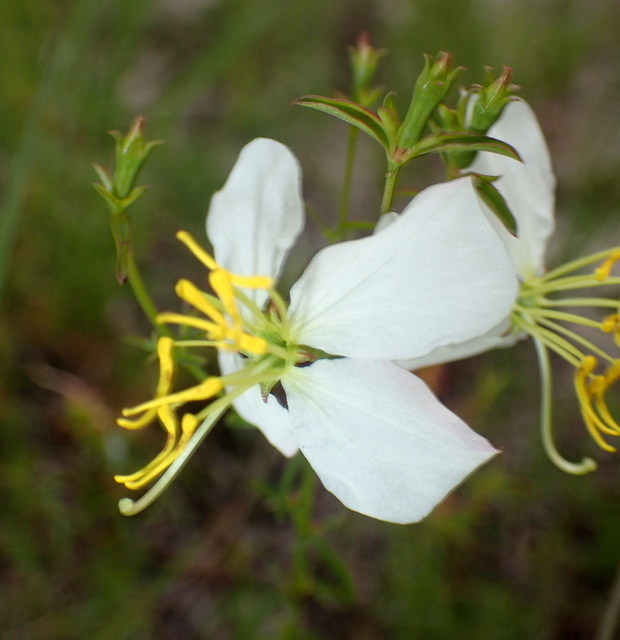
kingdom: Plantae
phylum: Tracheophyta
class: Magnoliopsida
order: Myrtales
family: Melastomataceae
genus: Rhexia
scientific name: Rhexia mariana
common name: Dull meadow-pitcher
